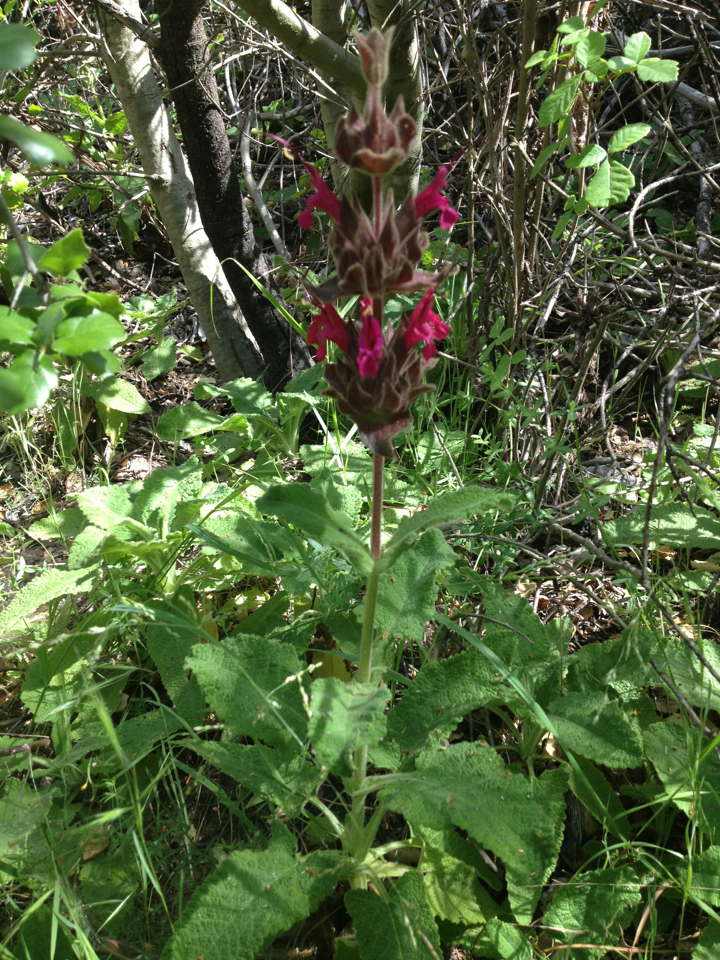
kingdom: Plantae
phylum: Tracheophyta
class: Magnoliopsida
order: Lamiales
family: Lamiaceae
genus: Salvia
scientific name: Salvia spathacea
